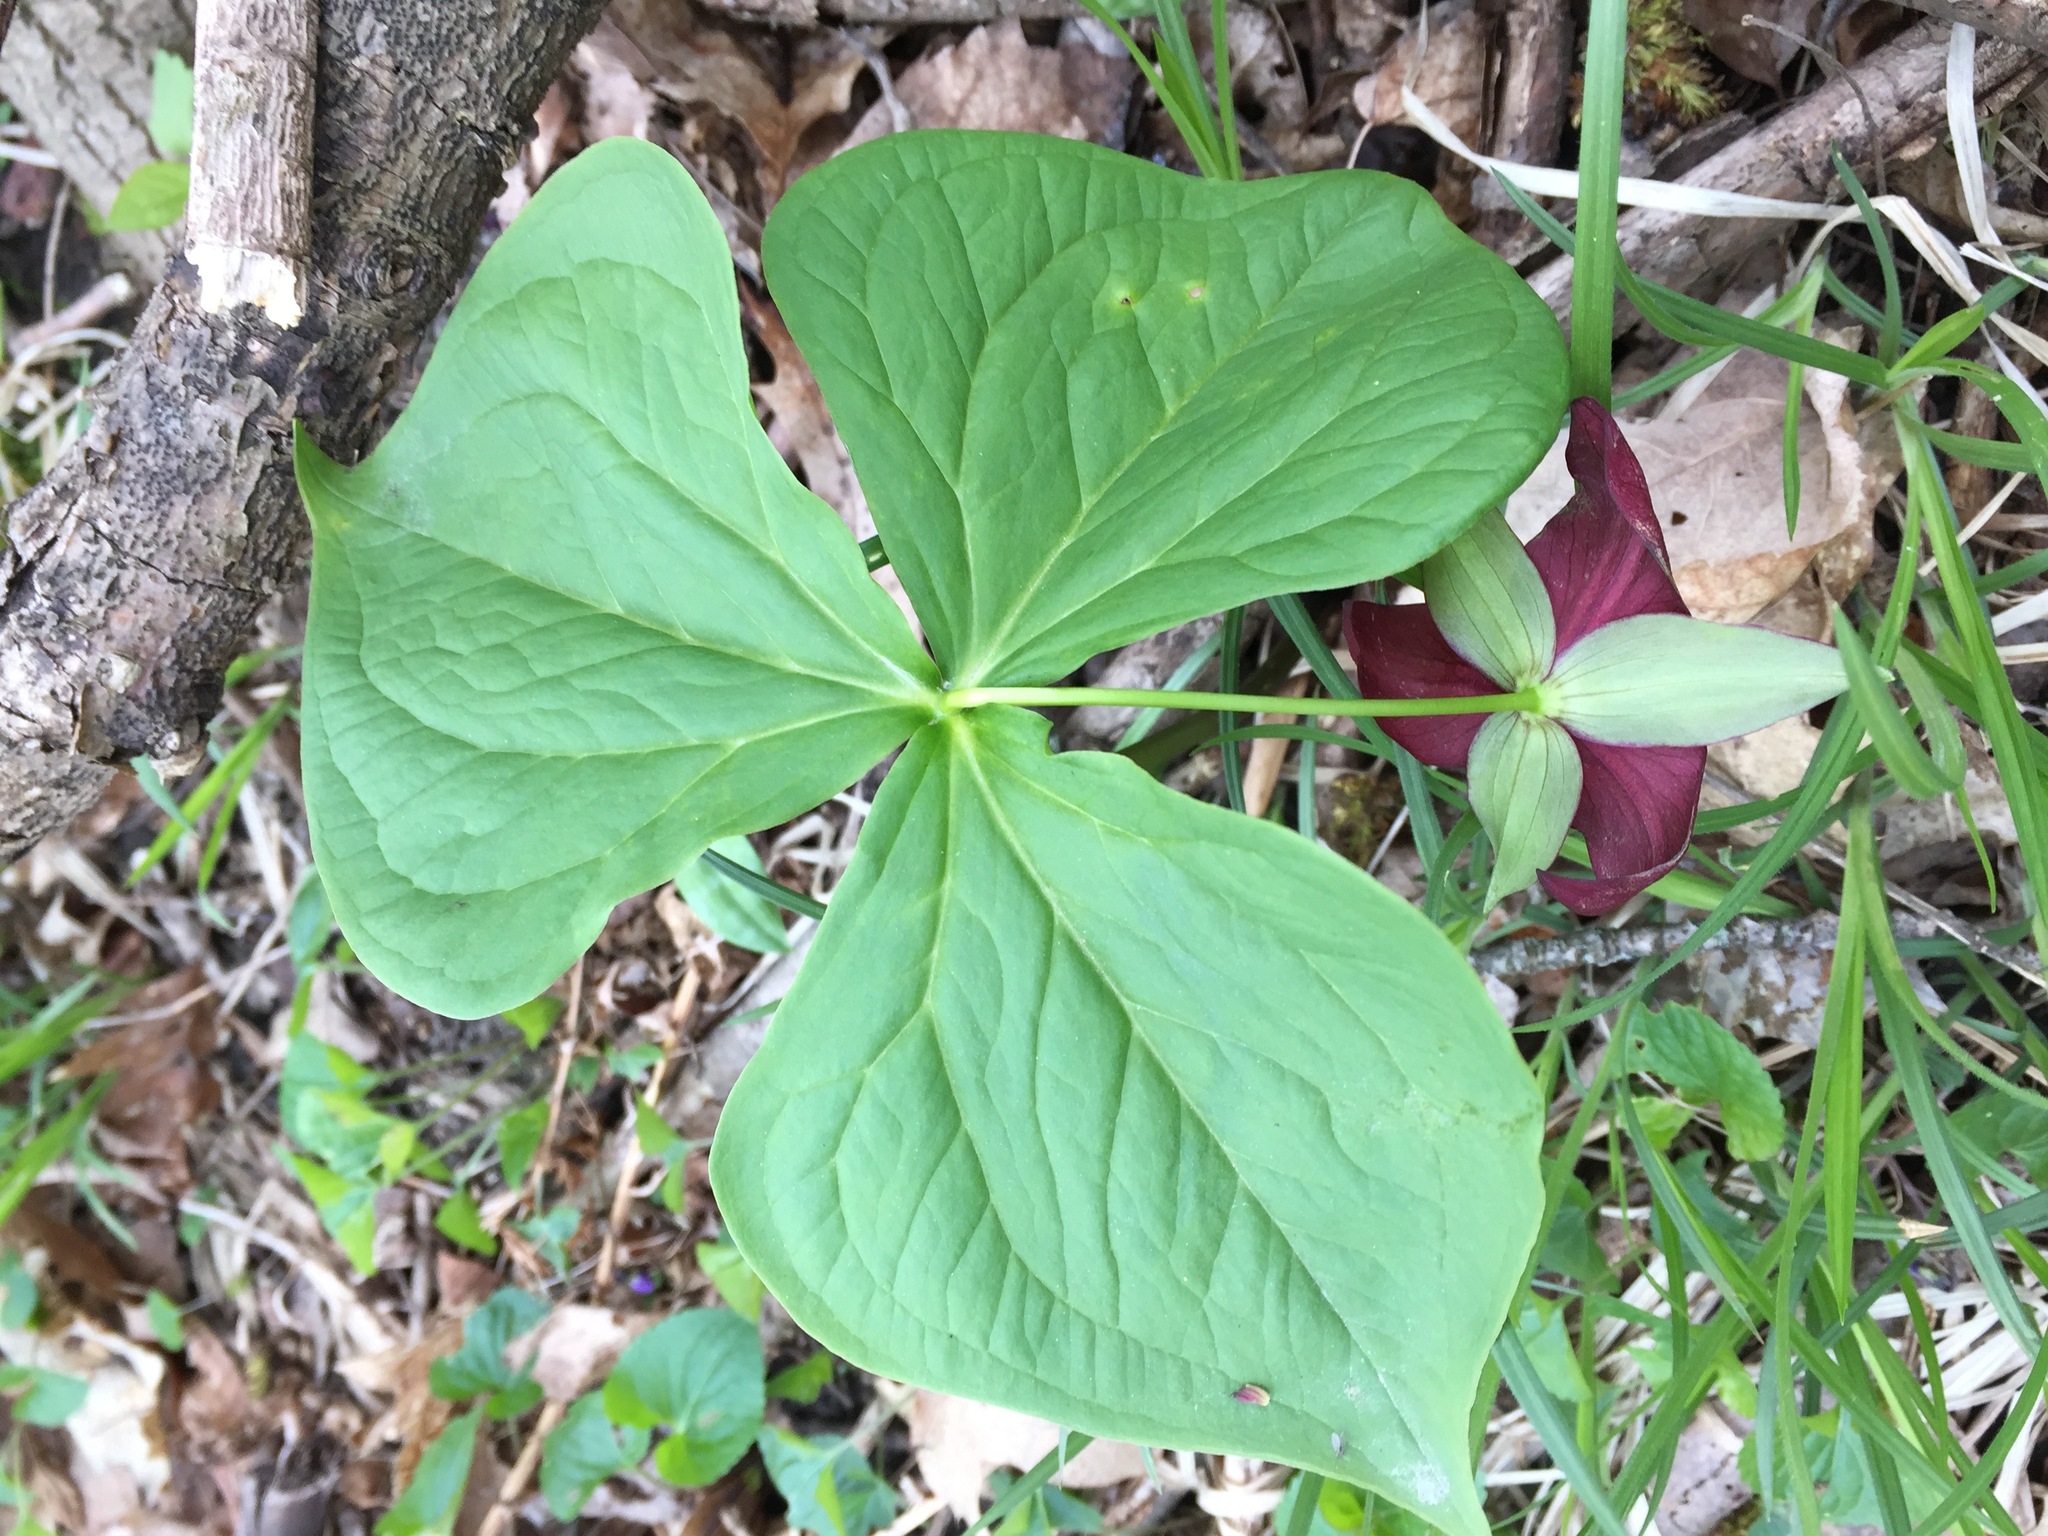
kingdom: Plantae
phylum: Tracheophyta
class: Liliopsida
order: Liliales
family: Melanthiaceae
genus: Trillium
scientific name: Trillium erectum
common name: Purple trillium
